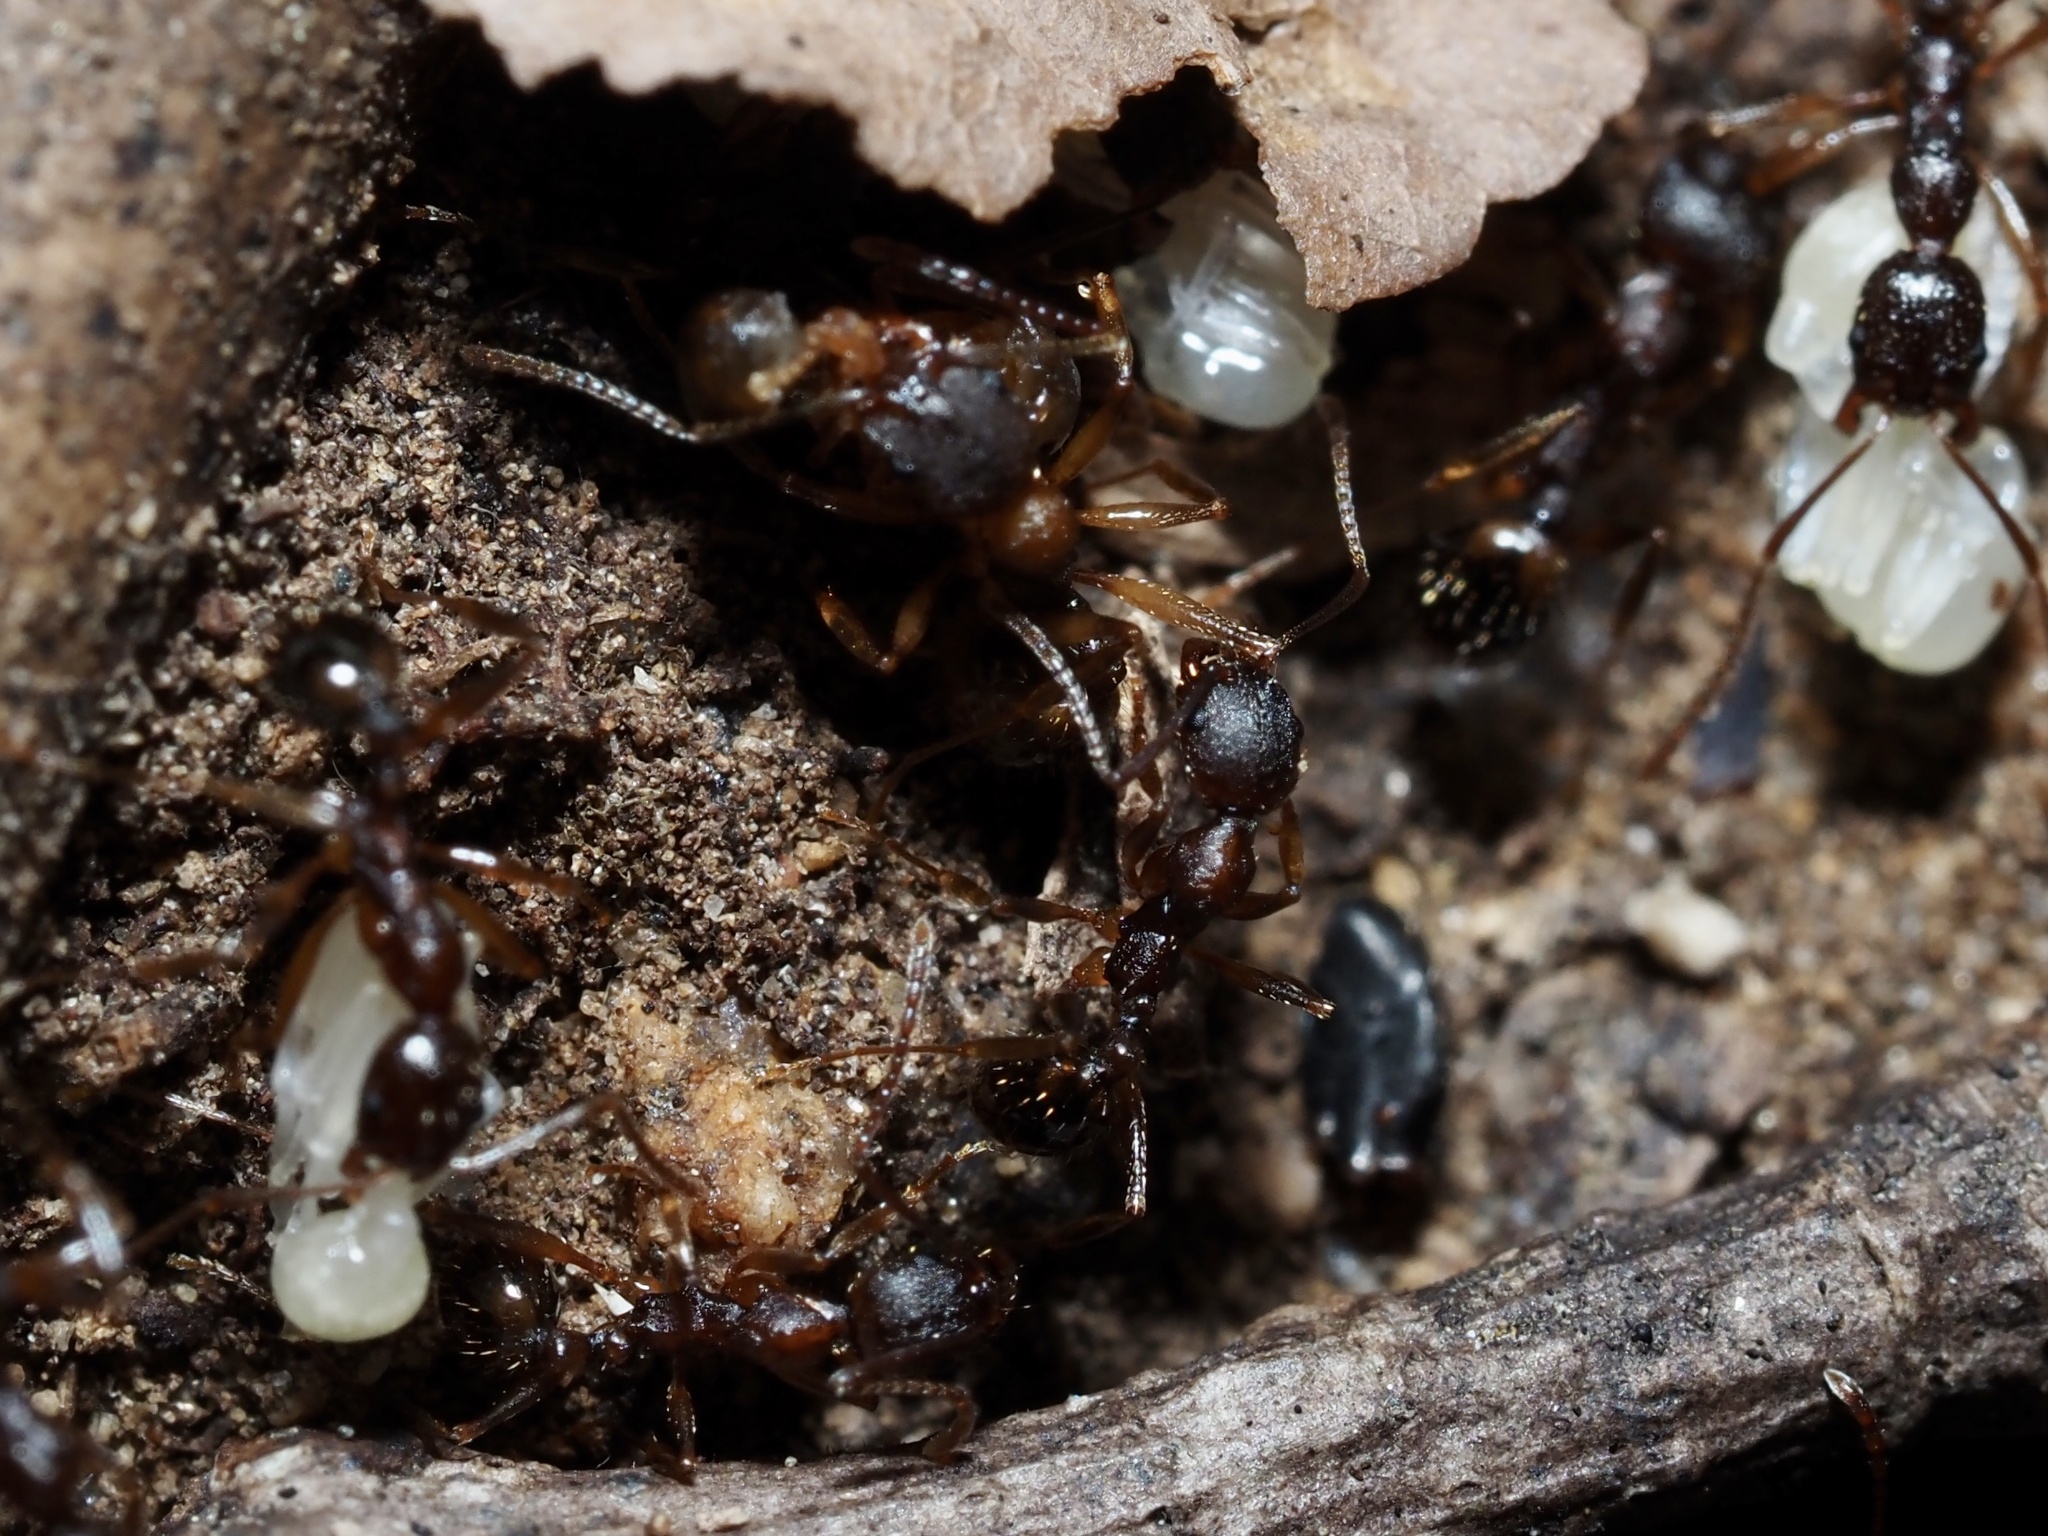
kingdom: Animalia
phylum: Arthropoda
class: Insecta
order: Hymenoptera
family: Formicidae
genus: Aphaenogaster
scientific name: Aphaenogaster rudis
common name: Winnow ant
